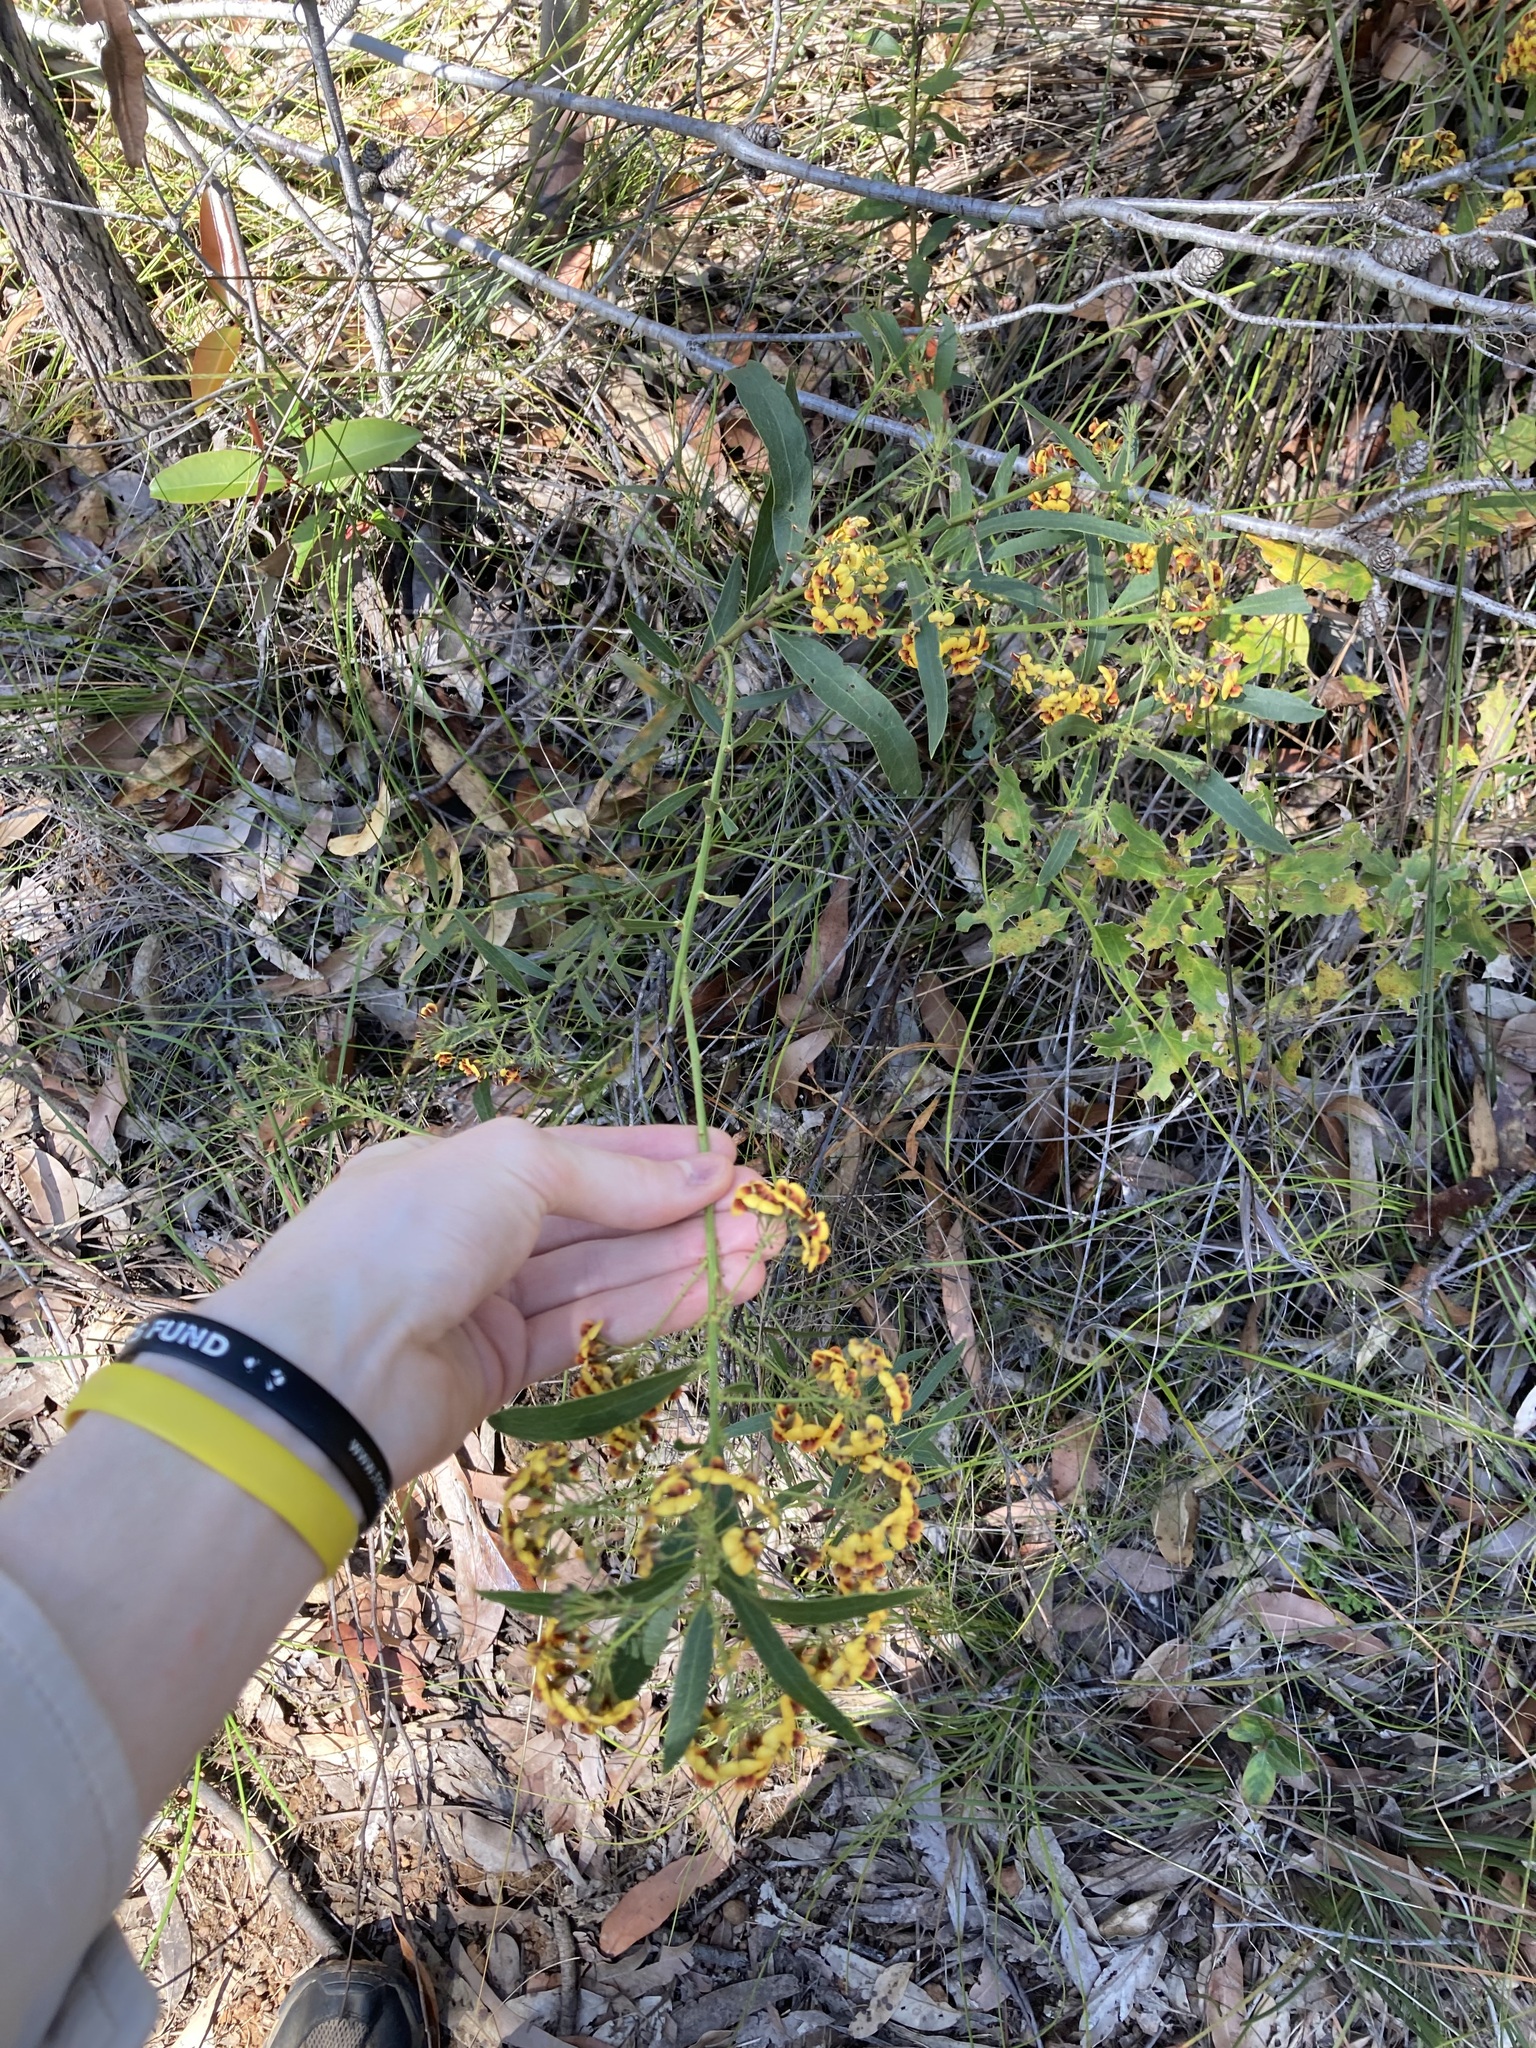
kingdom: Plantae
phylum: Tracheophyta
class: Magnoliopsida
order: Fabales
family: Fabaceae
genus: Daviesia
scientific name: Daviesia corymbosa
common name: Narrow-leaf bitter-pea
